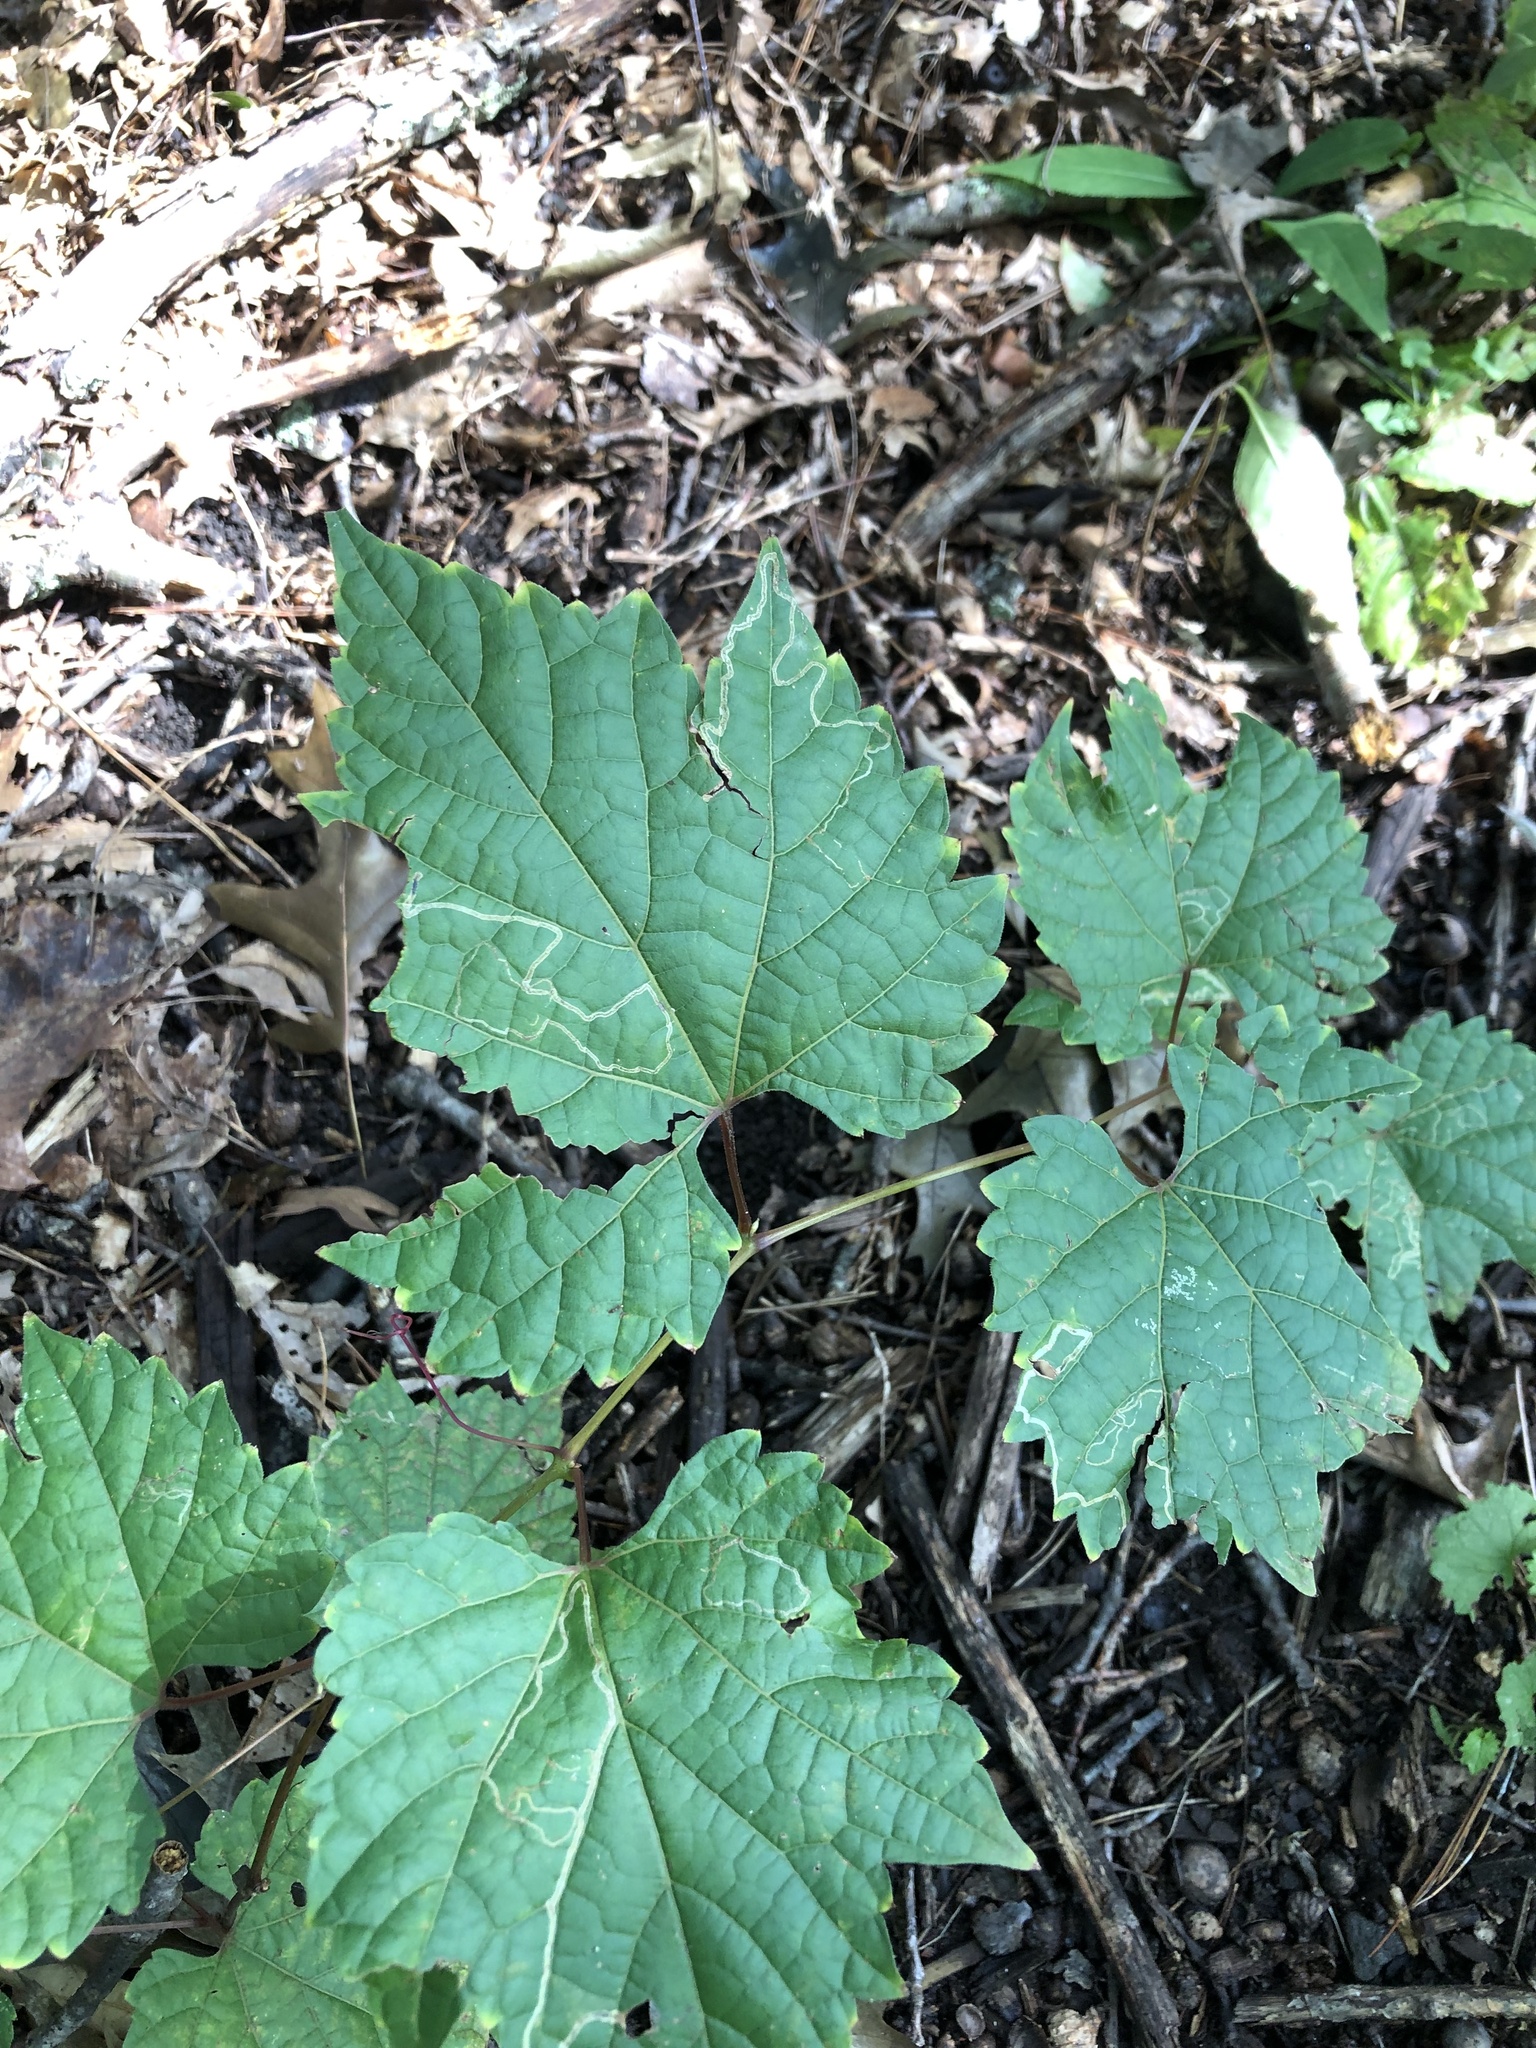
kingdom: Animalia
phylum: Arthropoda
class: Insecta
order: Lepidoptera
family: Gracillariidae
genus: Phyllocnistis
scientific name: Phyllocnistis vitifoliella
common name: Grape leaf-miner moth
